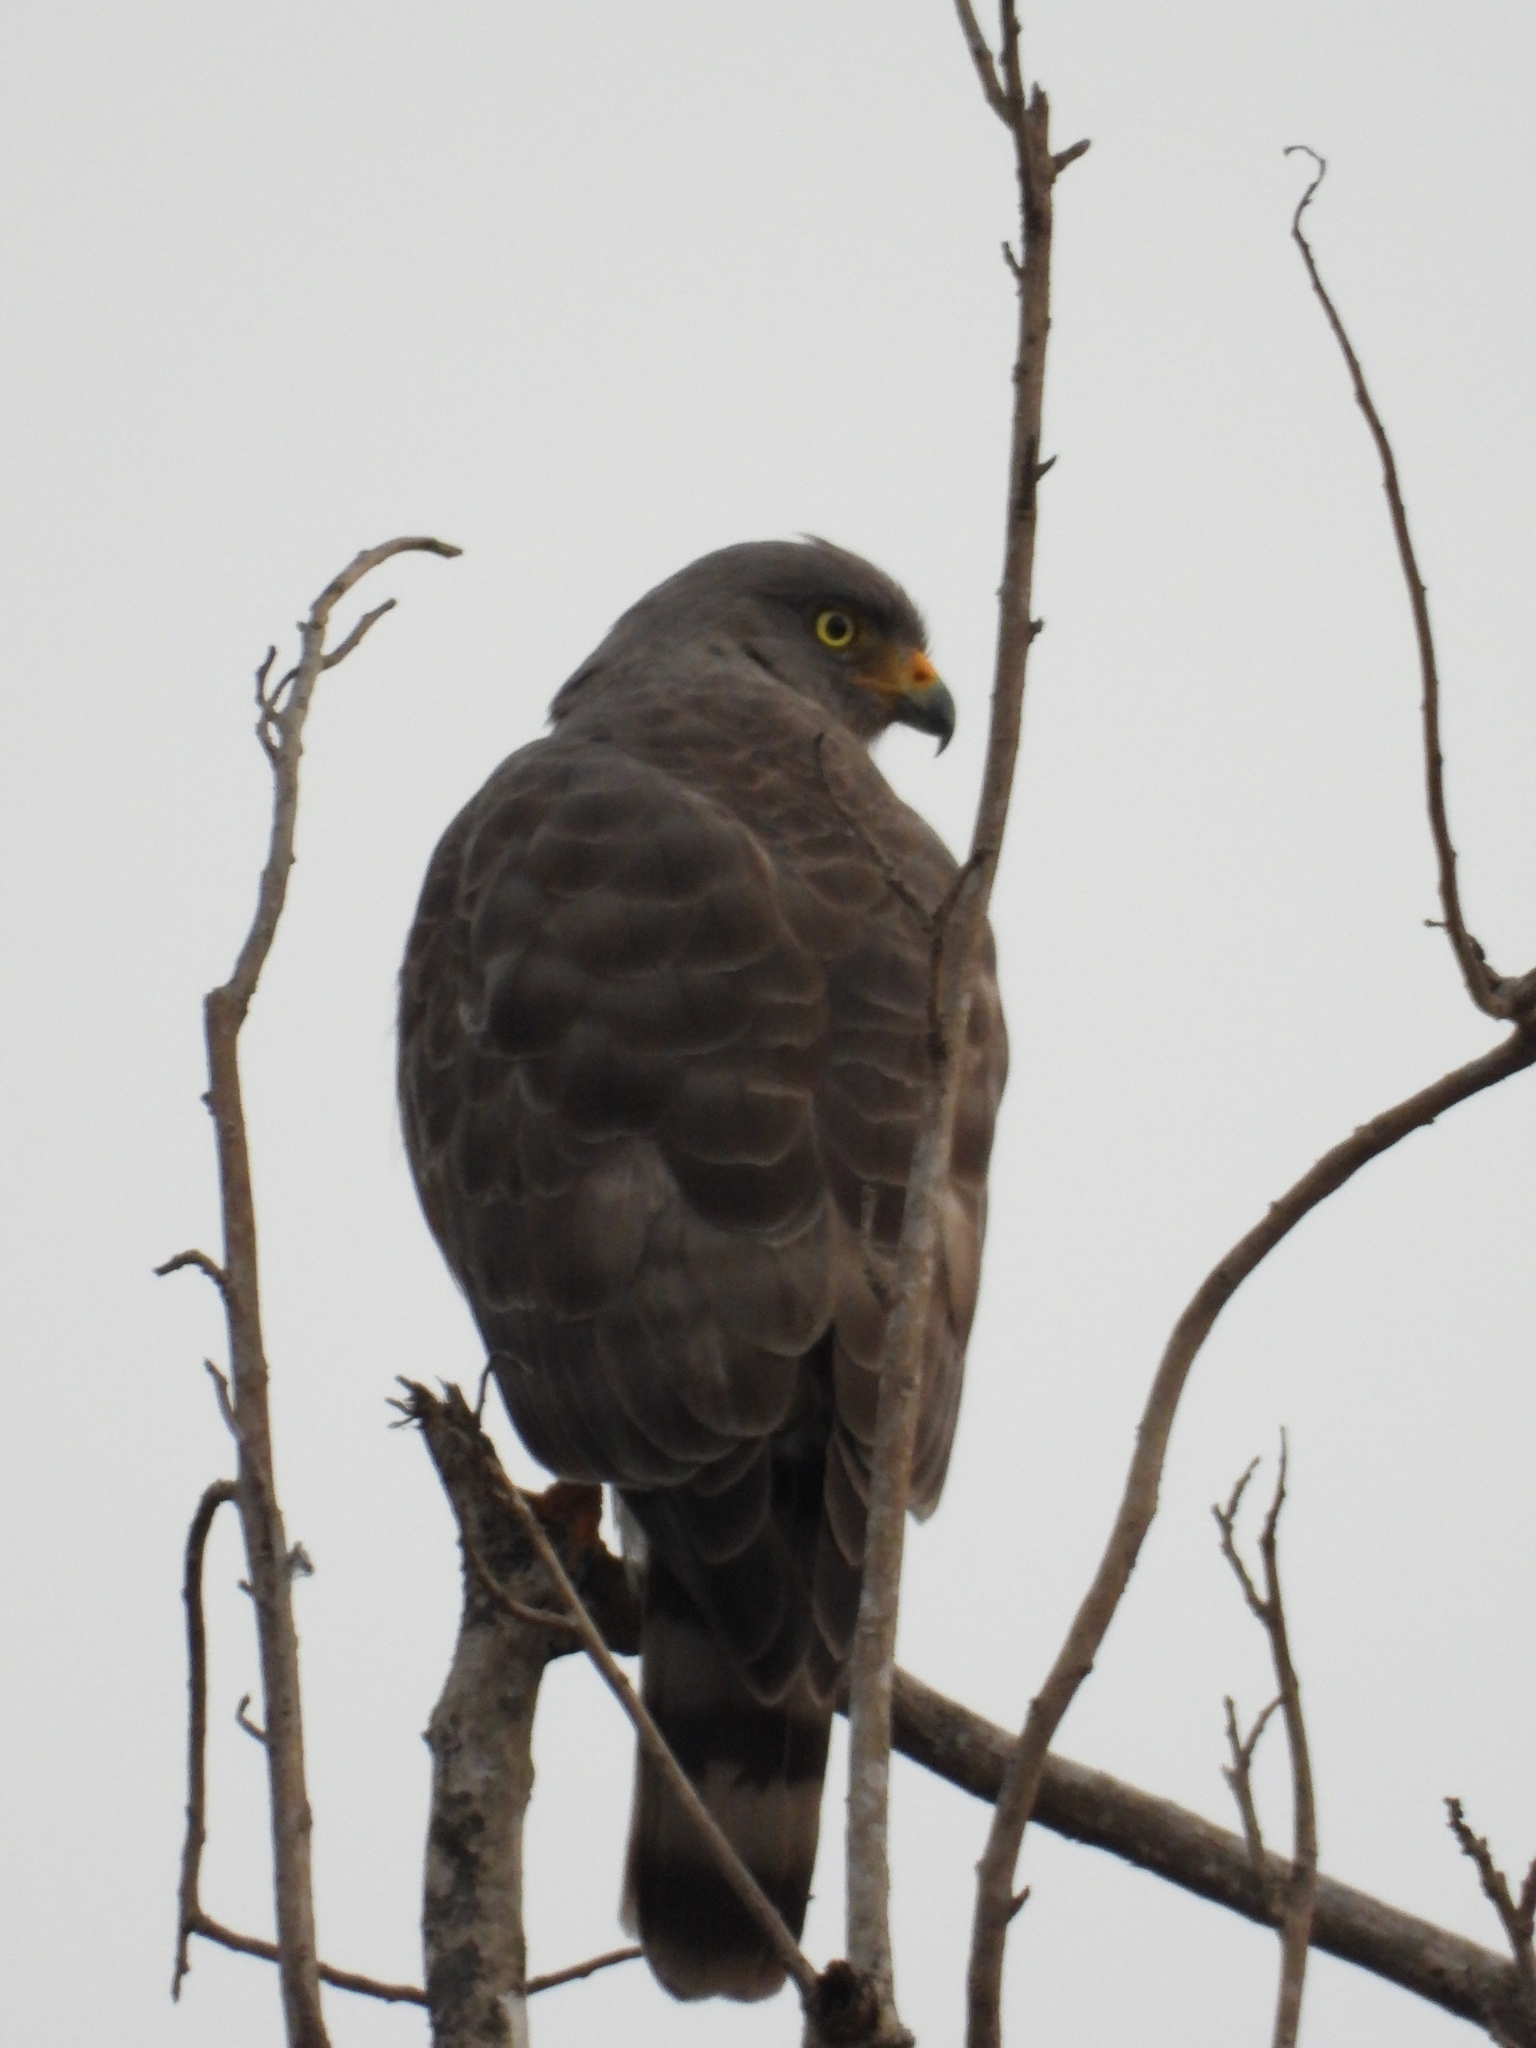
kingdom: Animalia
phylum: Chordata
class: Aves
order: Accipitriformes
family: Accipitridae
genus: Rupornis
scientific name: Rupornis magnirostris
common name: Roadside hawk
